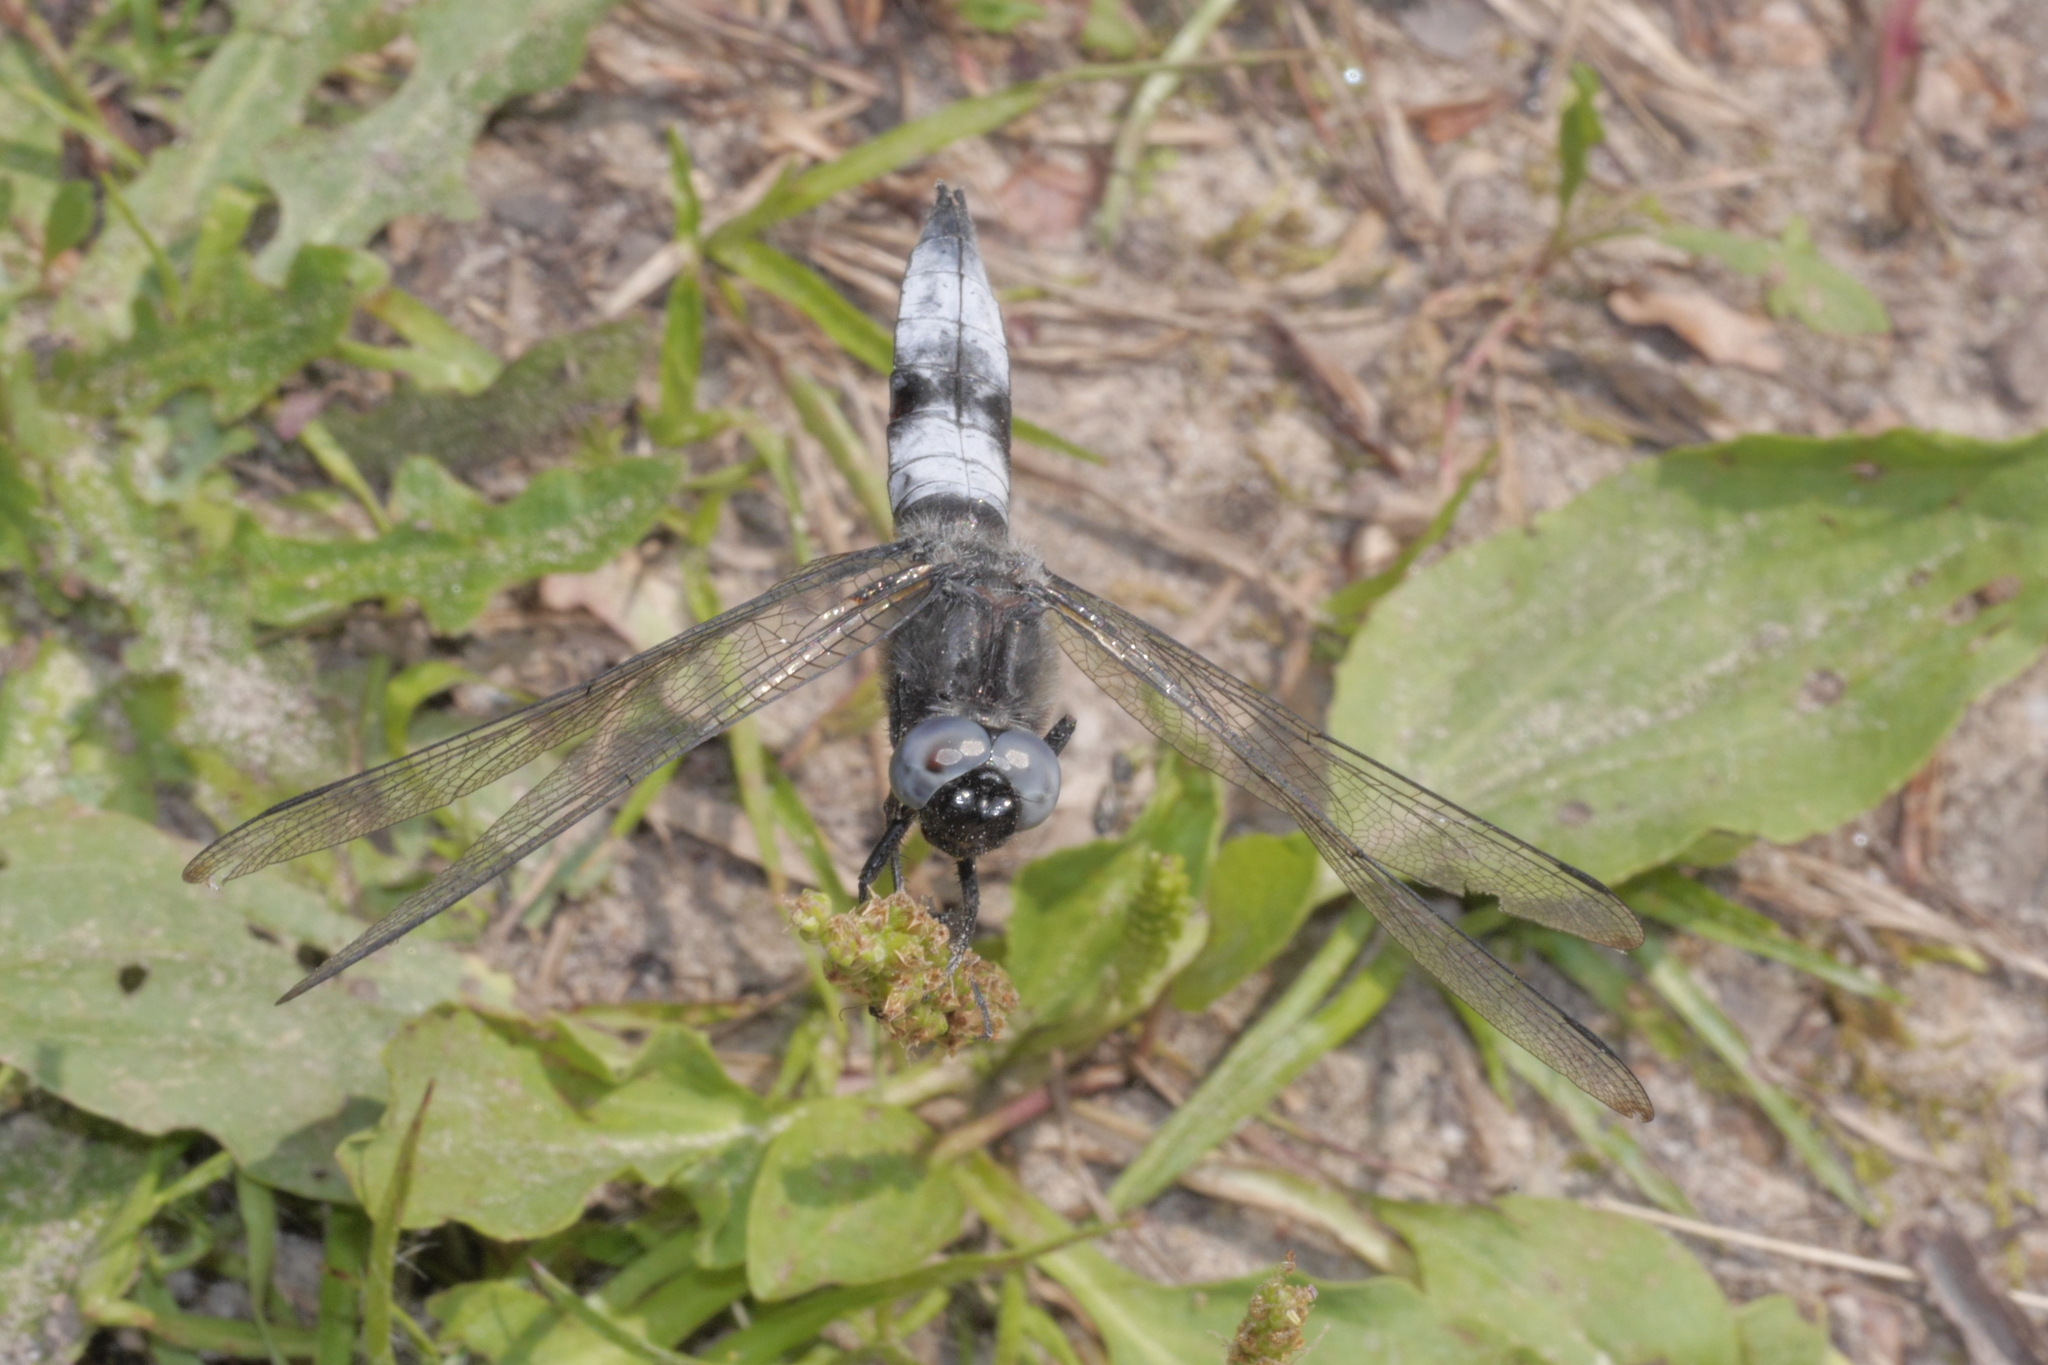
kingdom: Animalia
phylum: Arthropoda
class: Insecta
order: Odonata
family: Libellulidae
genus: Libellula
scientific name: Libellula fulva
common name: Blue chaser
